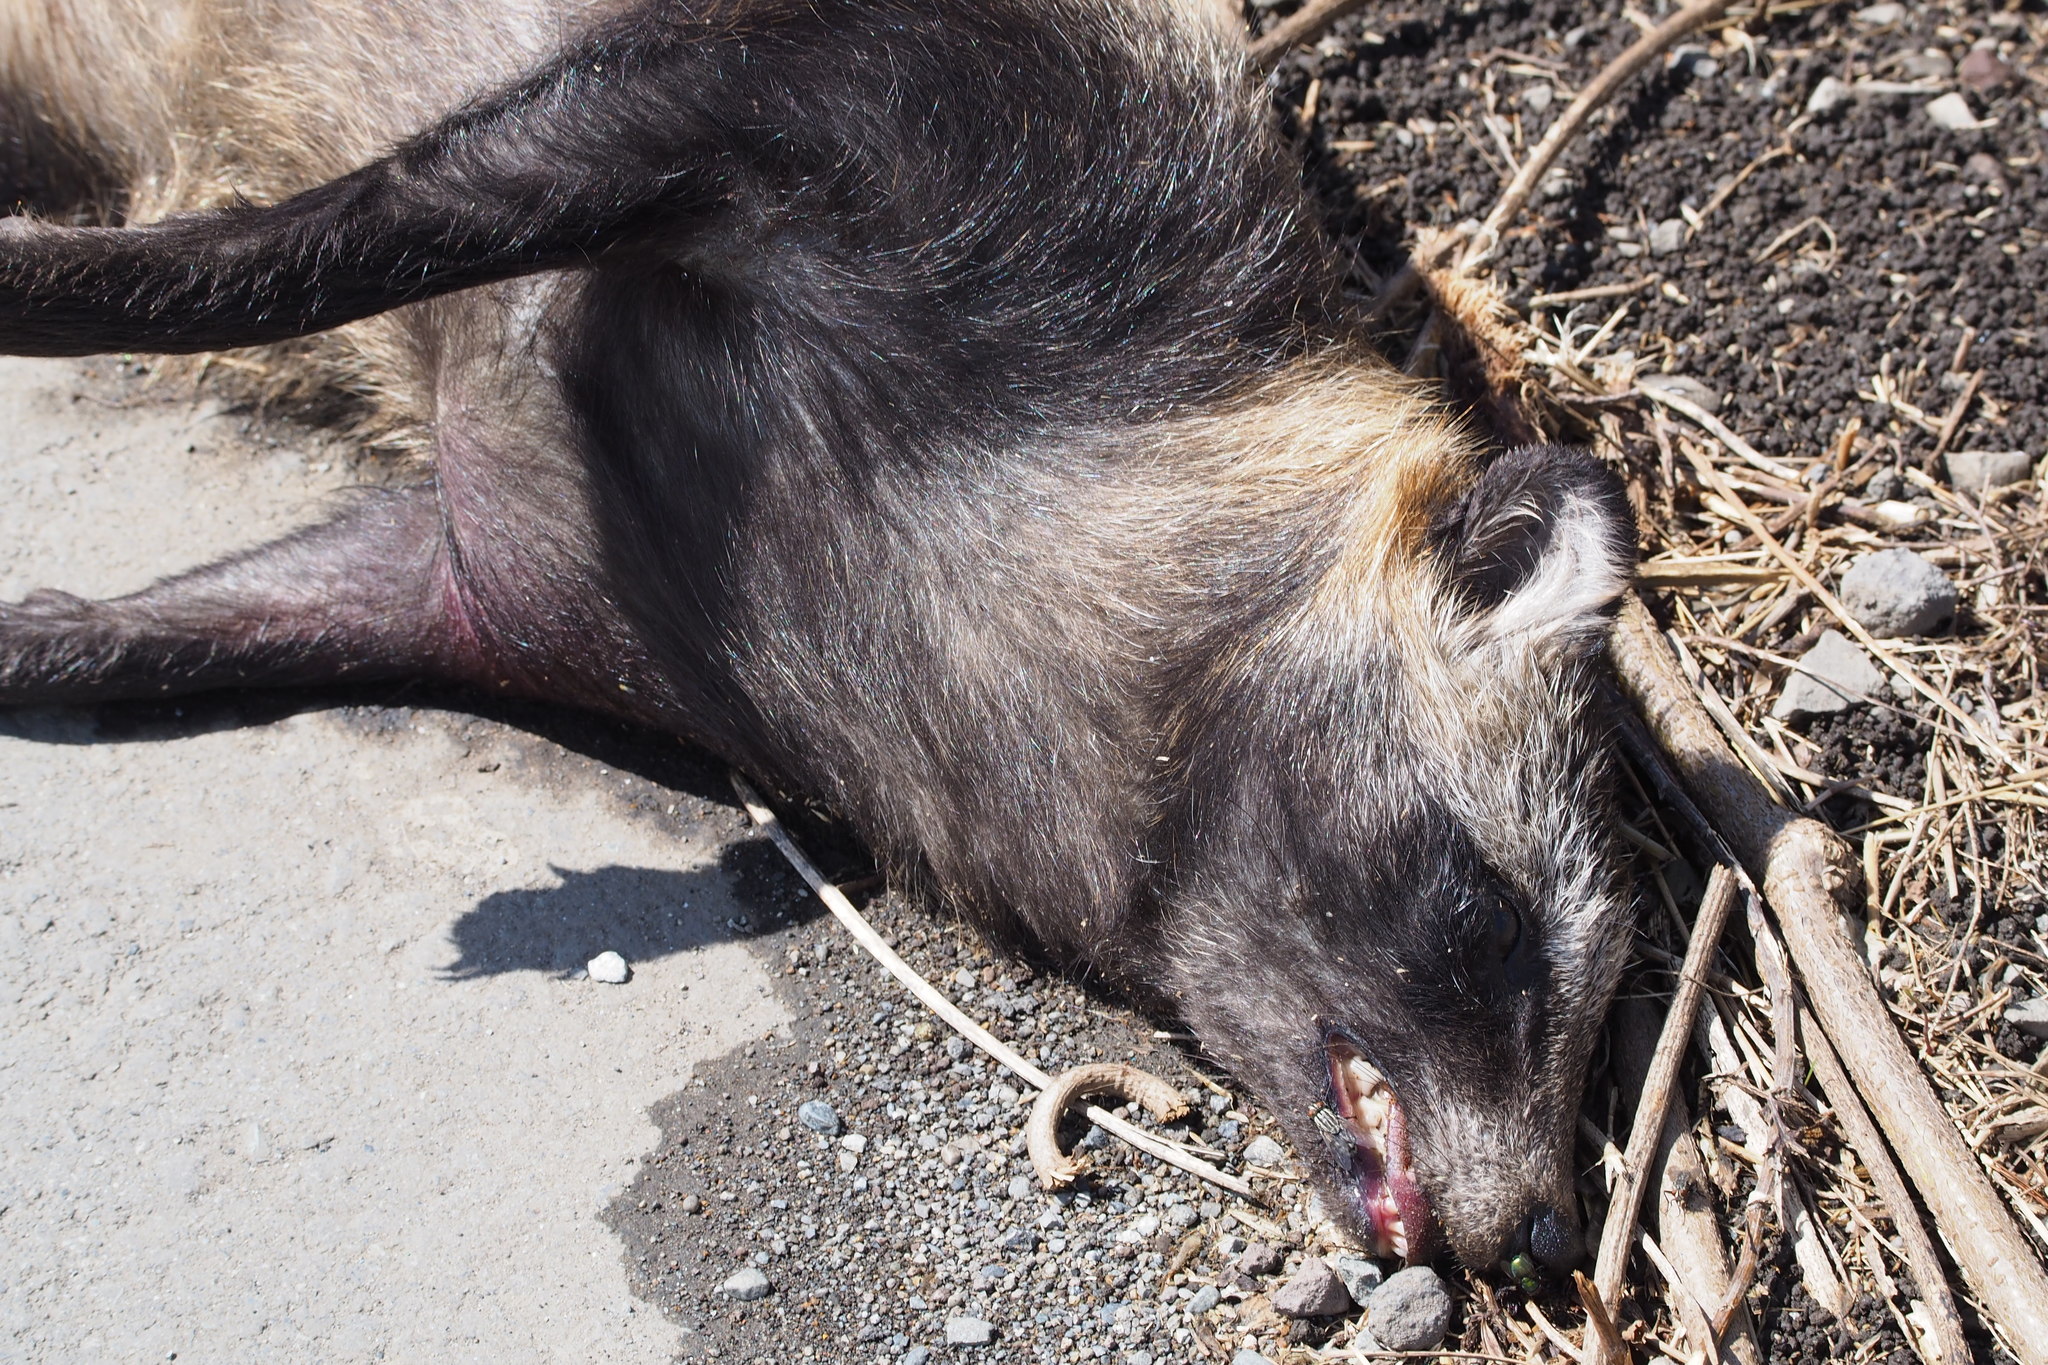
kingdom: Animalia
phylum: Chordata
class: Mammalia
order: Carnivora
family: Canidae
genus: Nyctereutes
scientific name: Nyctereutes
